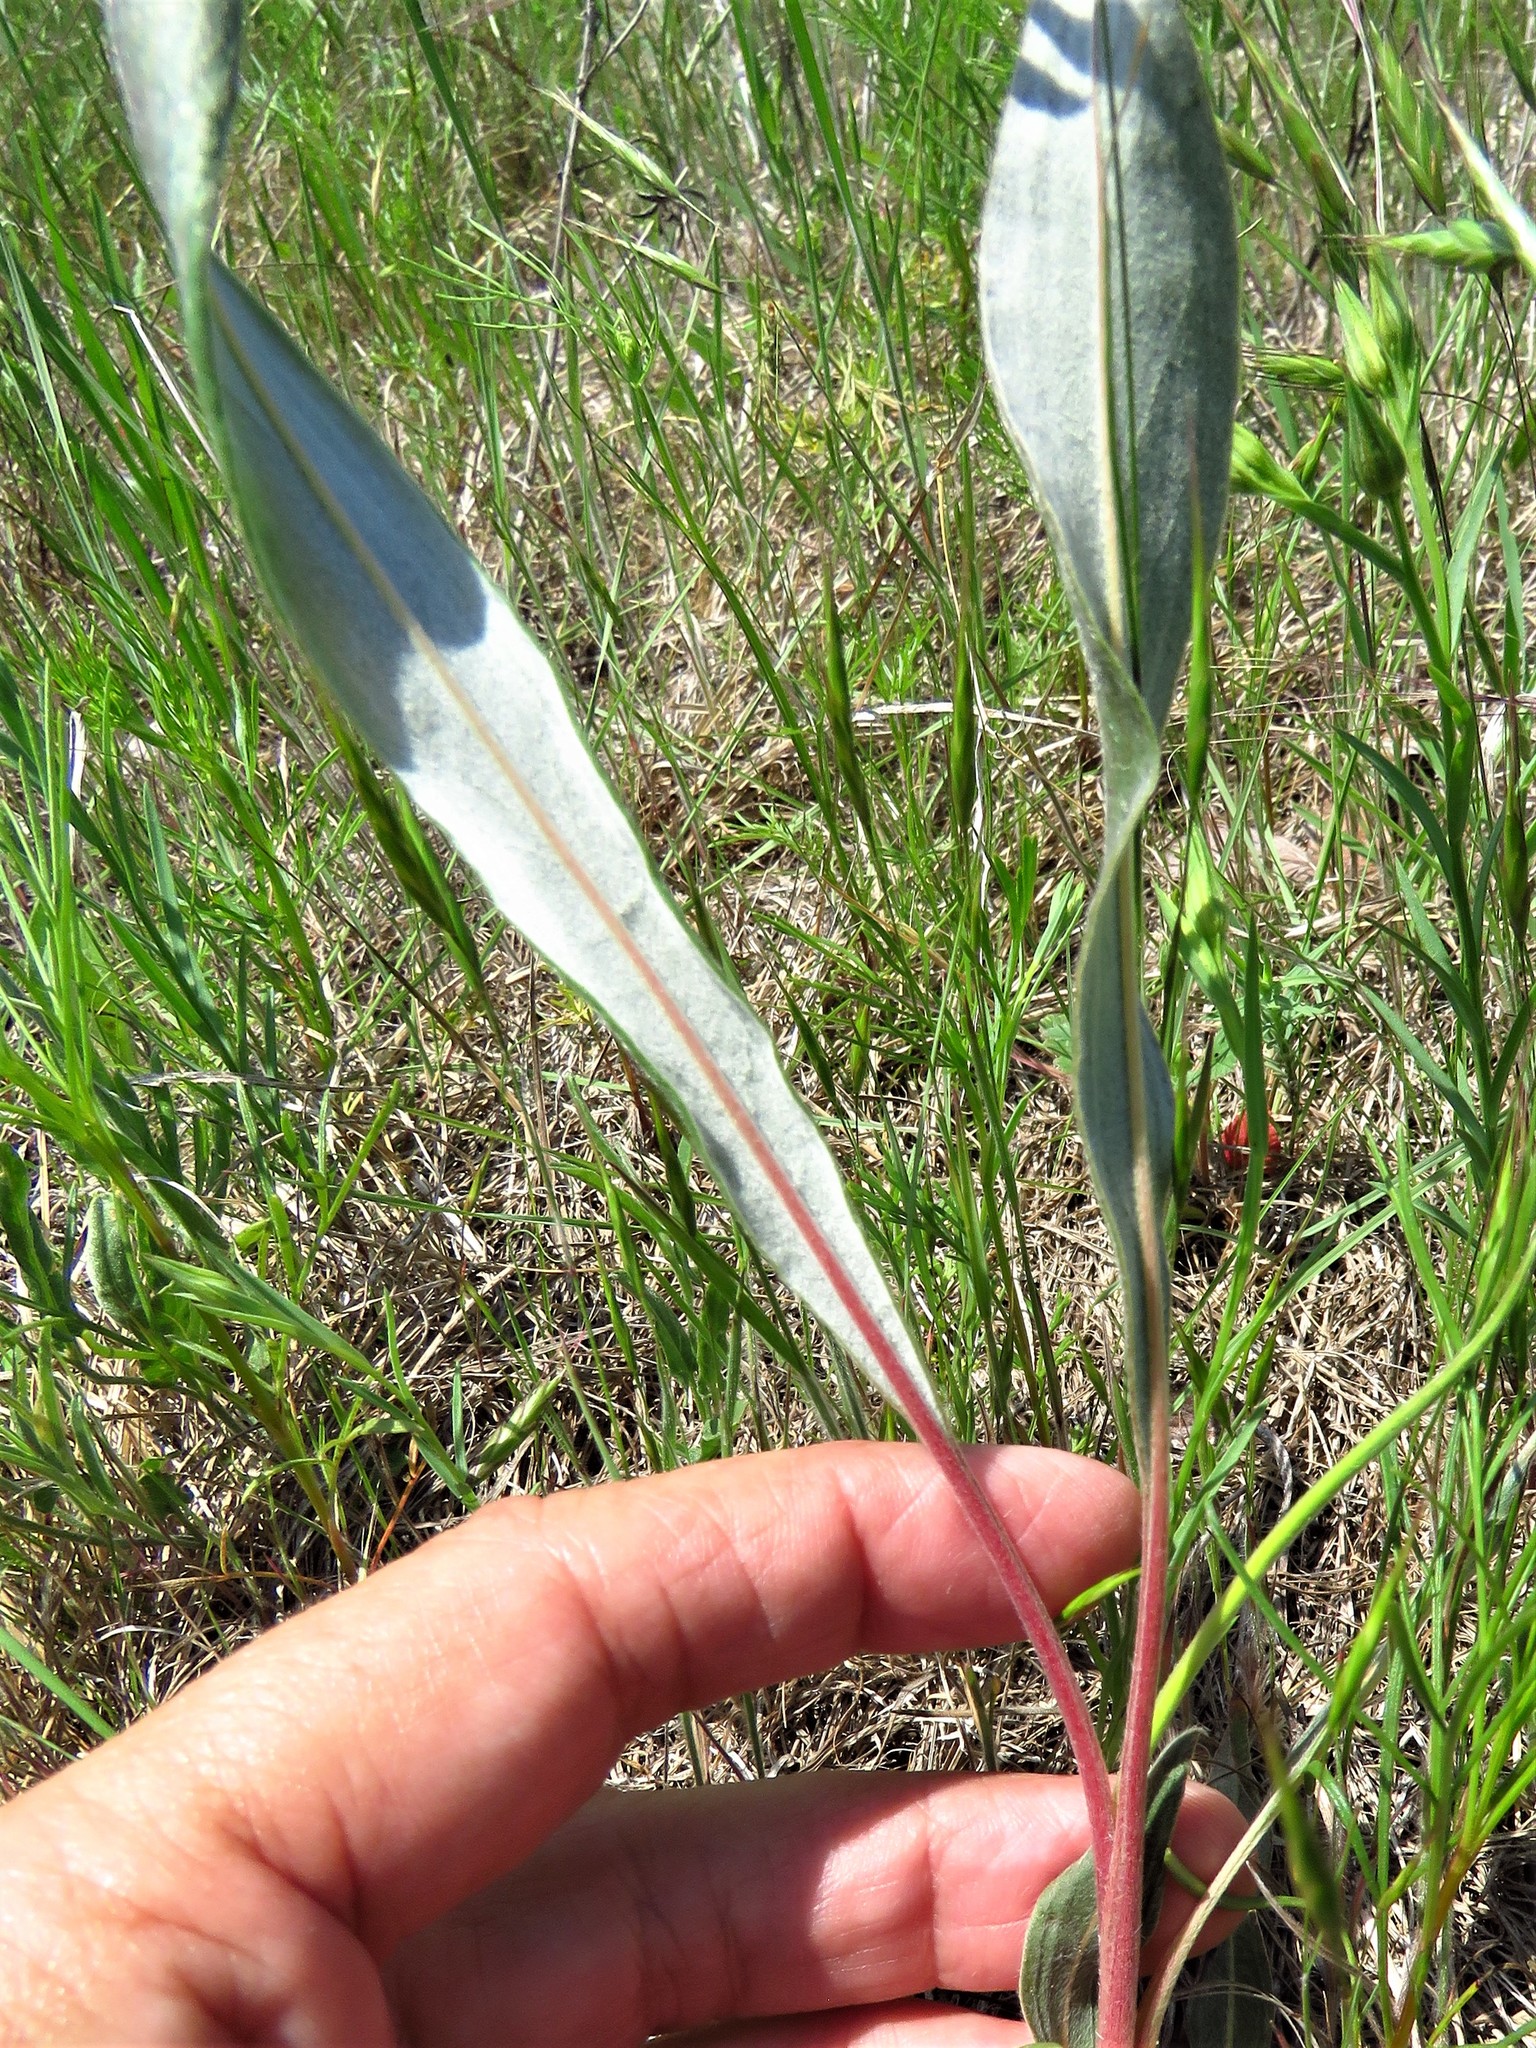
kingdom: Plantae
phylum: Tracheophyta
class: Magnoliopsida
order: Caryophyllales
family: Polygonaceae
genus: Eriogonum
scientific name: Eriogonum longifolium
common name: Longleaf wild buckwheat
